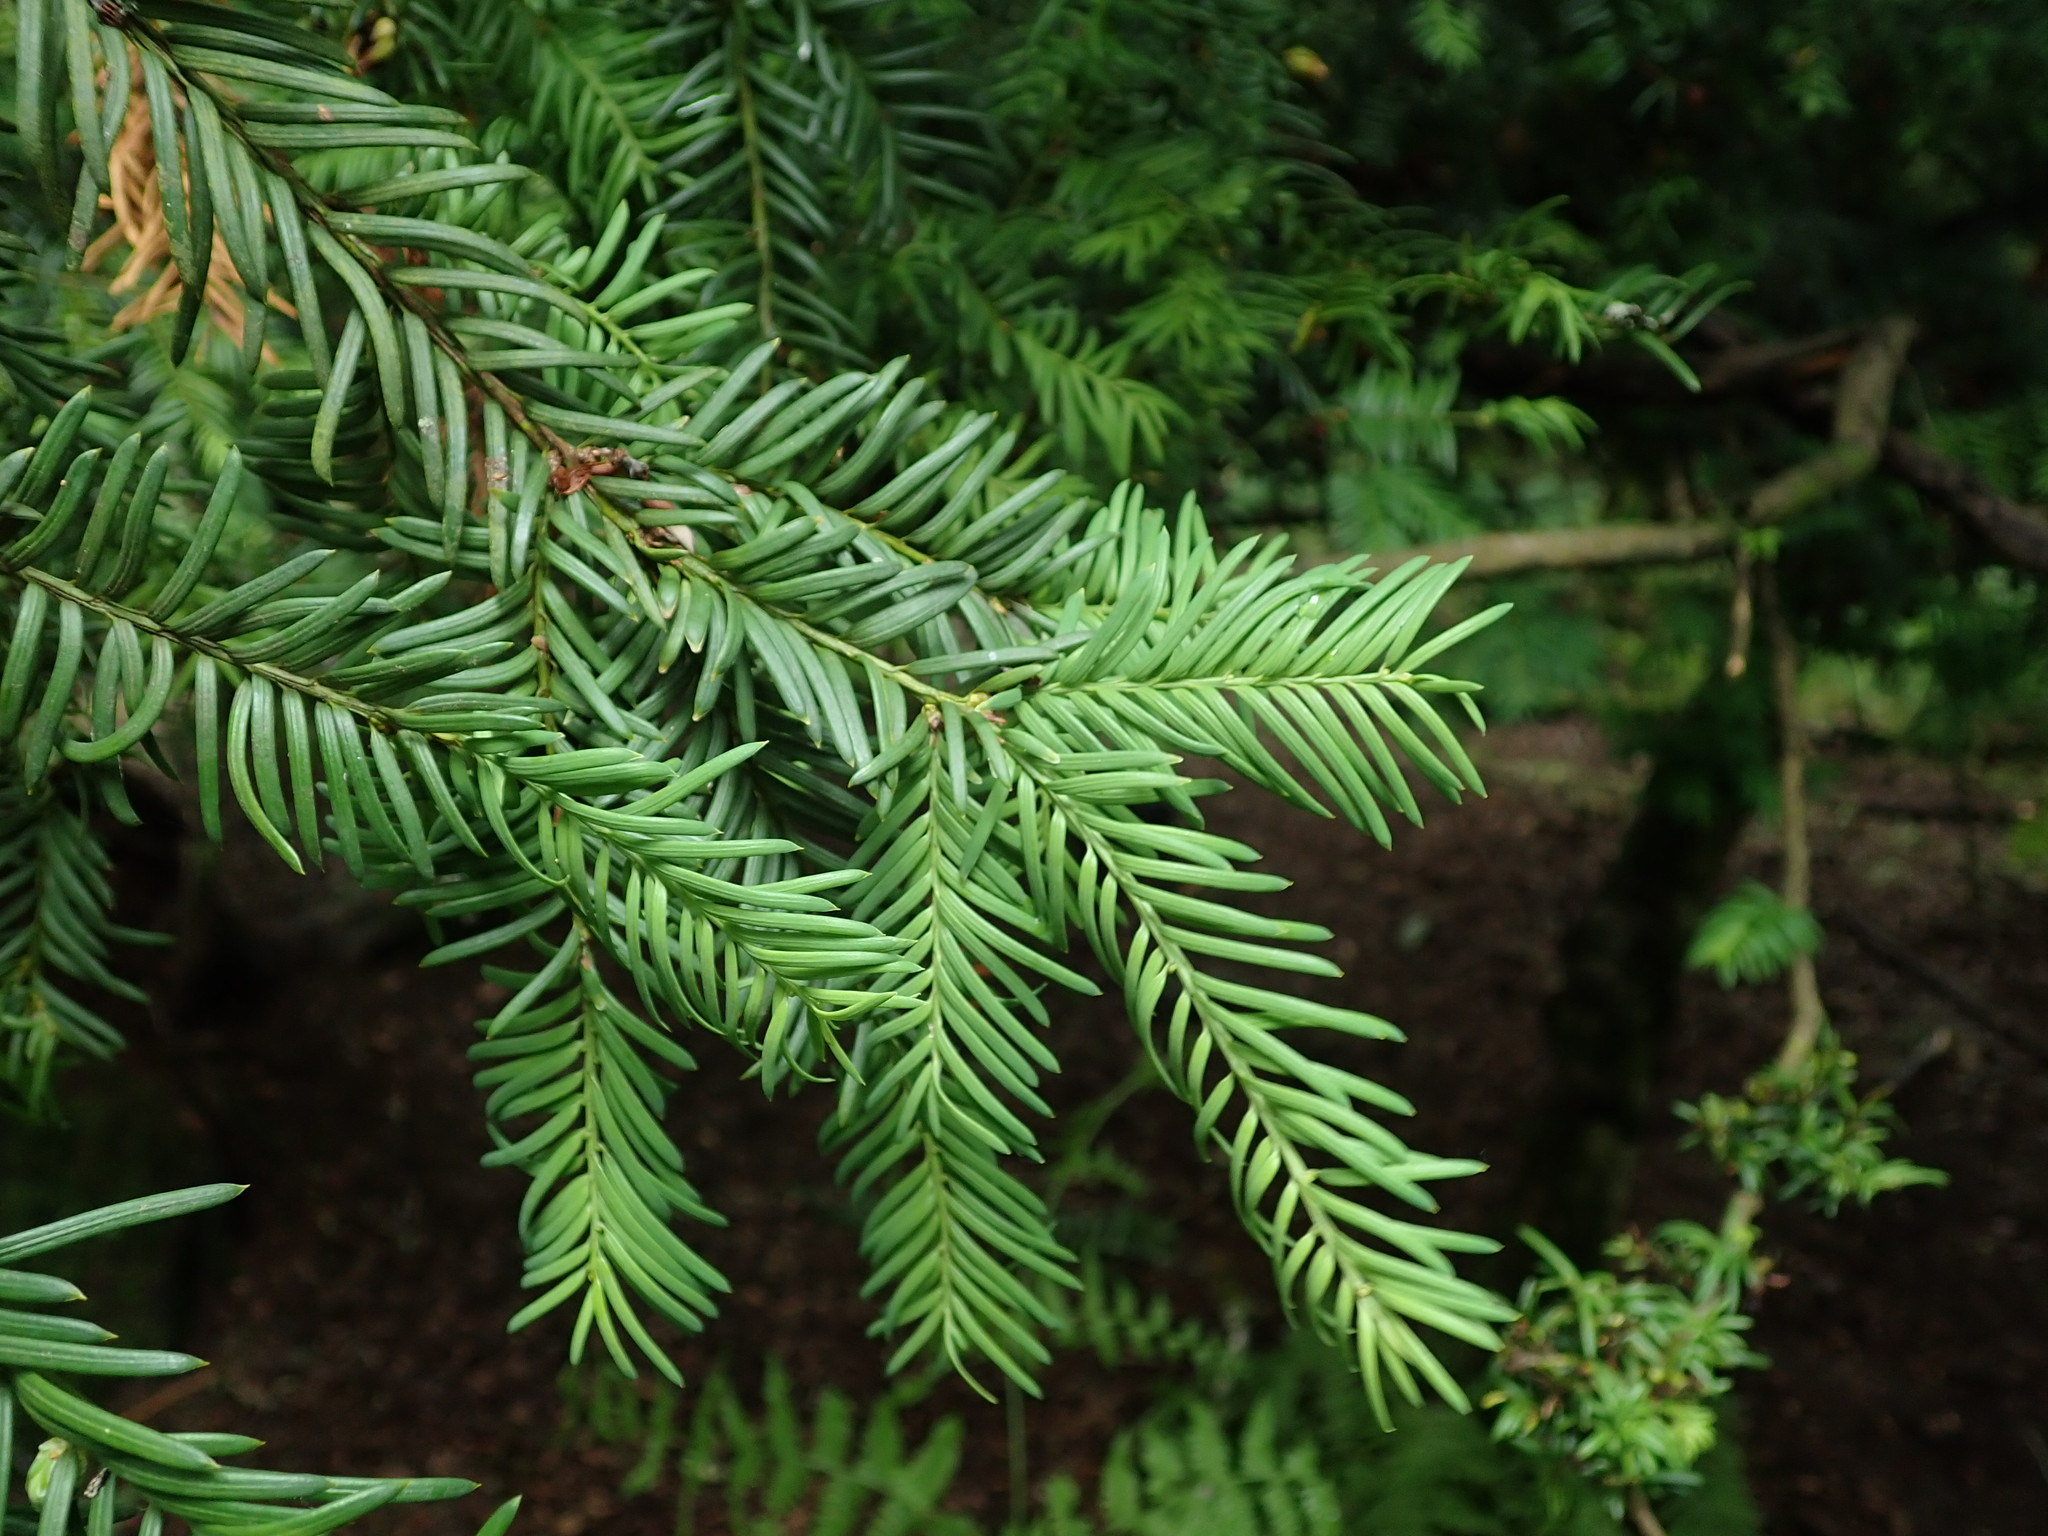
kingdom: Plantae
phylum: Tracheophyta
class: Pinopsida
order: Pinales
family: Taxaceae
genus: Taxus
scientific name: Taxus baccata
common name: Yew
